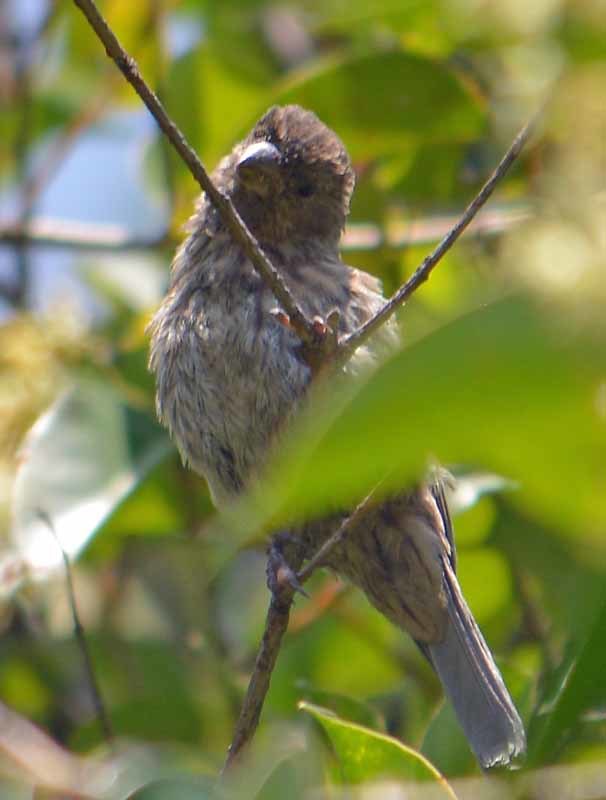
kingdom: Animalia
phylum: Chordata
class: Aves
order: Passeriformes
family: Fringillidae
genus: Haemorhous
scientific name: Haemorhous mexicanus
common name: House finch
